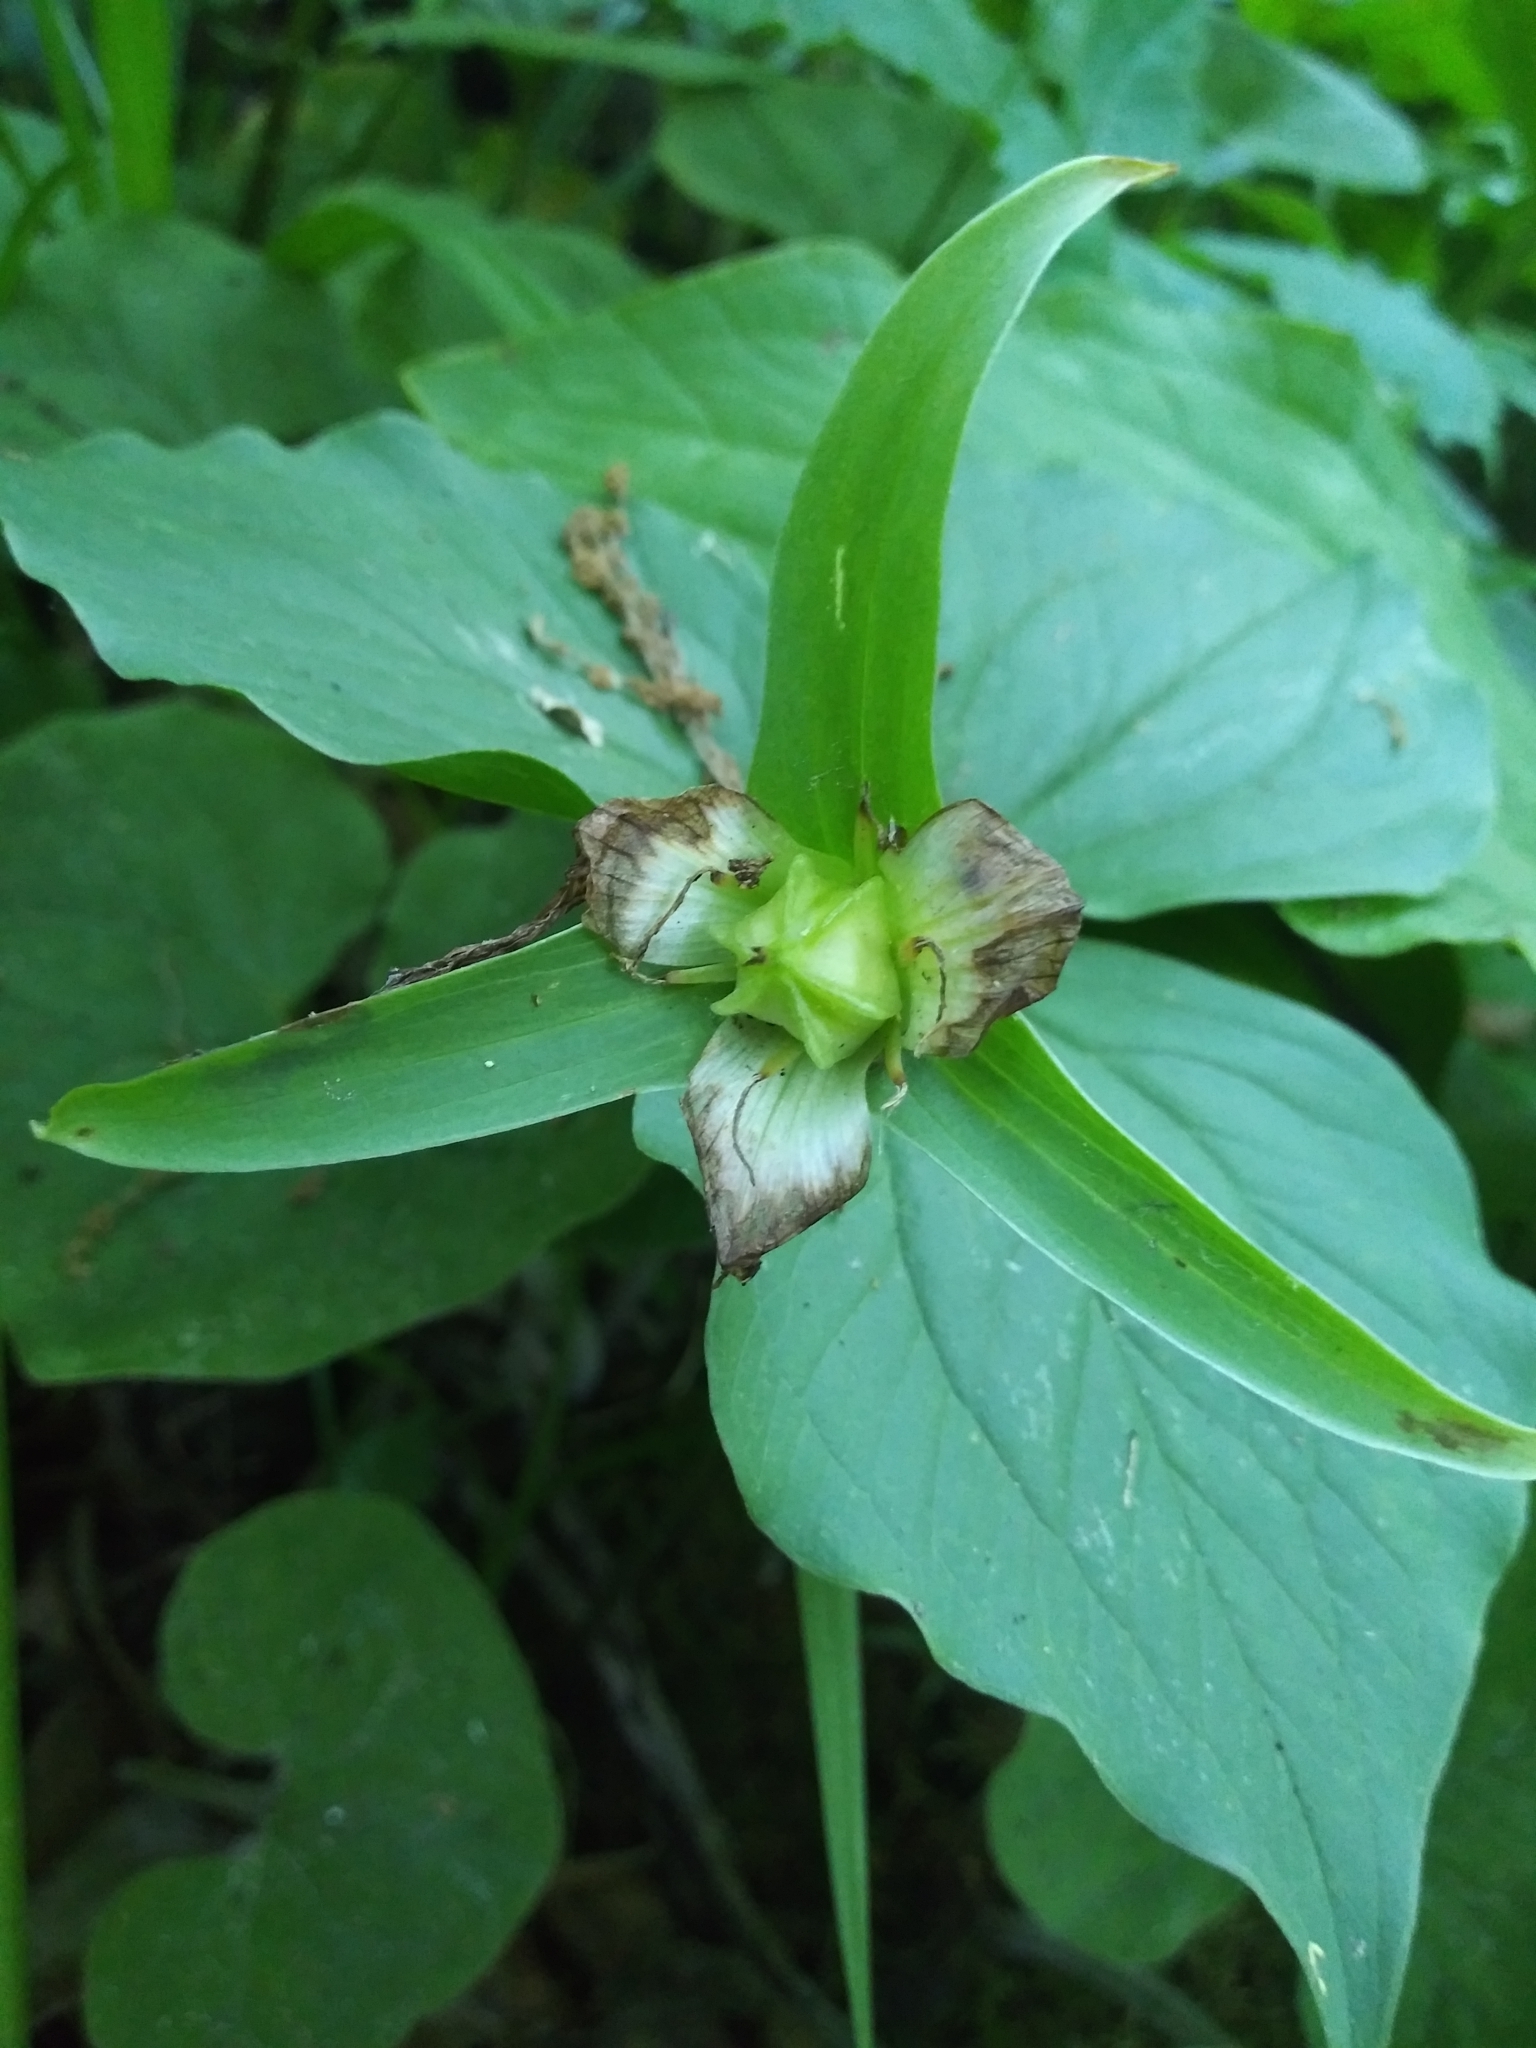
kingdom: Plantae
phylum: Tracheophyta
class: Liliopsida
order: Liliales
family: Melanthiaceae
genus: Trillium
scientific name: Trillium grandiflorum
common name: Great white trillium
